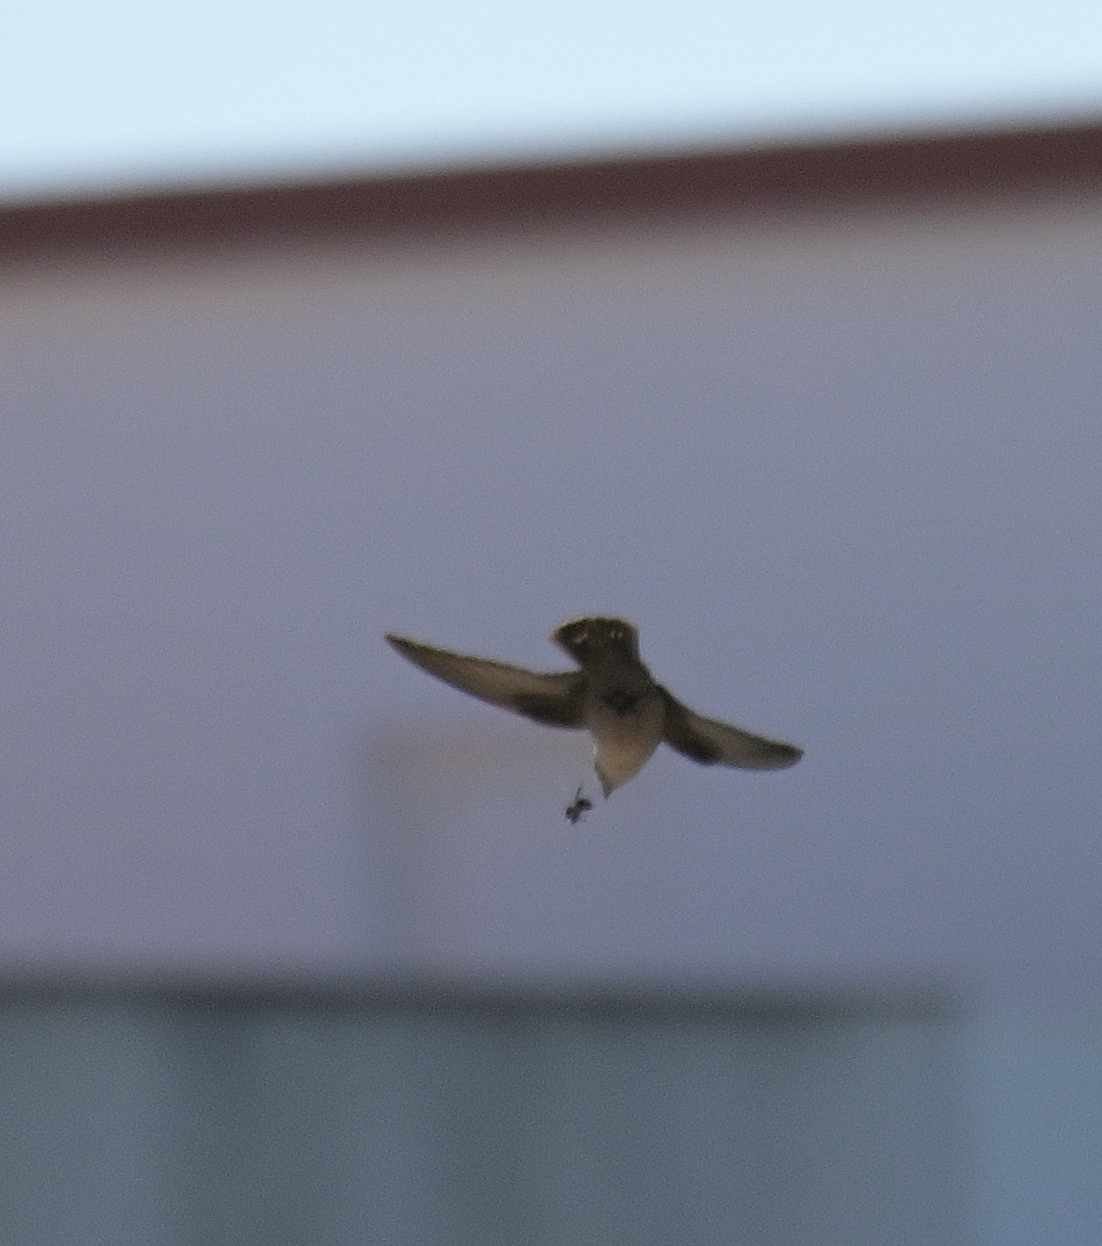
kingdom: Animalia
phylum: Chordata
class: Aves
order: Passeriformes
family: Hirundinidae
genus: Ptyonoprogne
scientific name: Ptyonoprogne rupestris
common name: Eurasian crag martin
